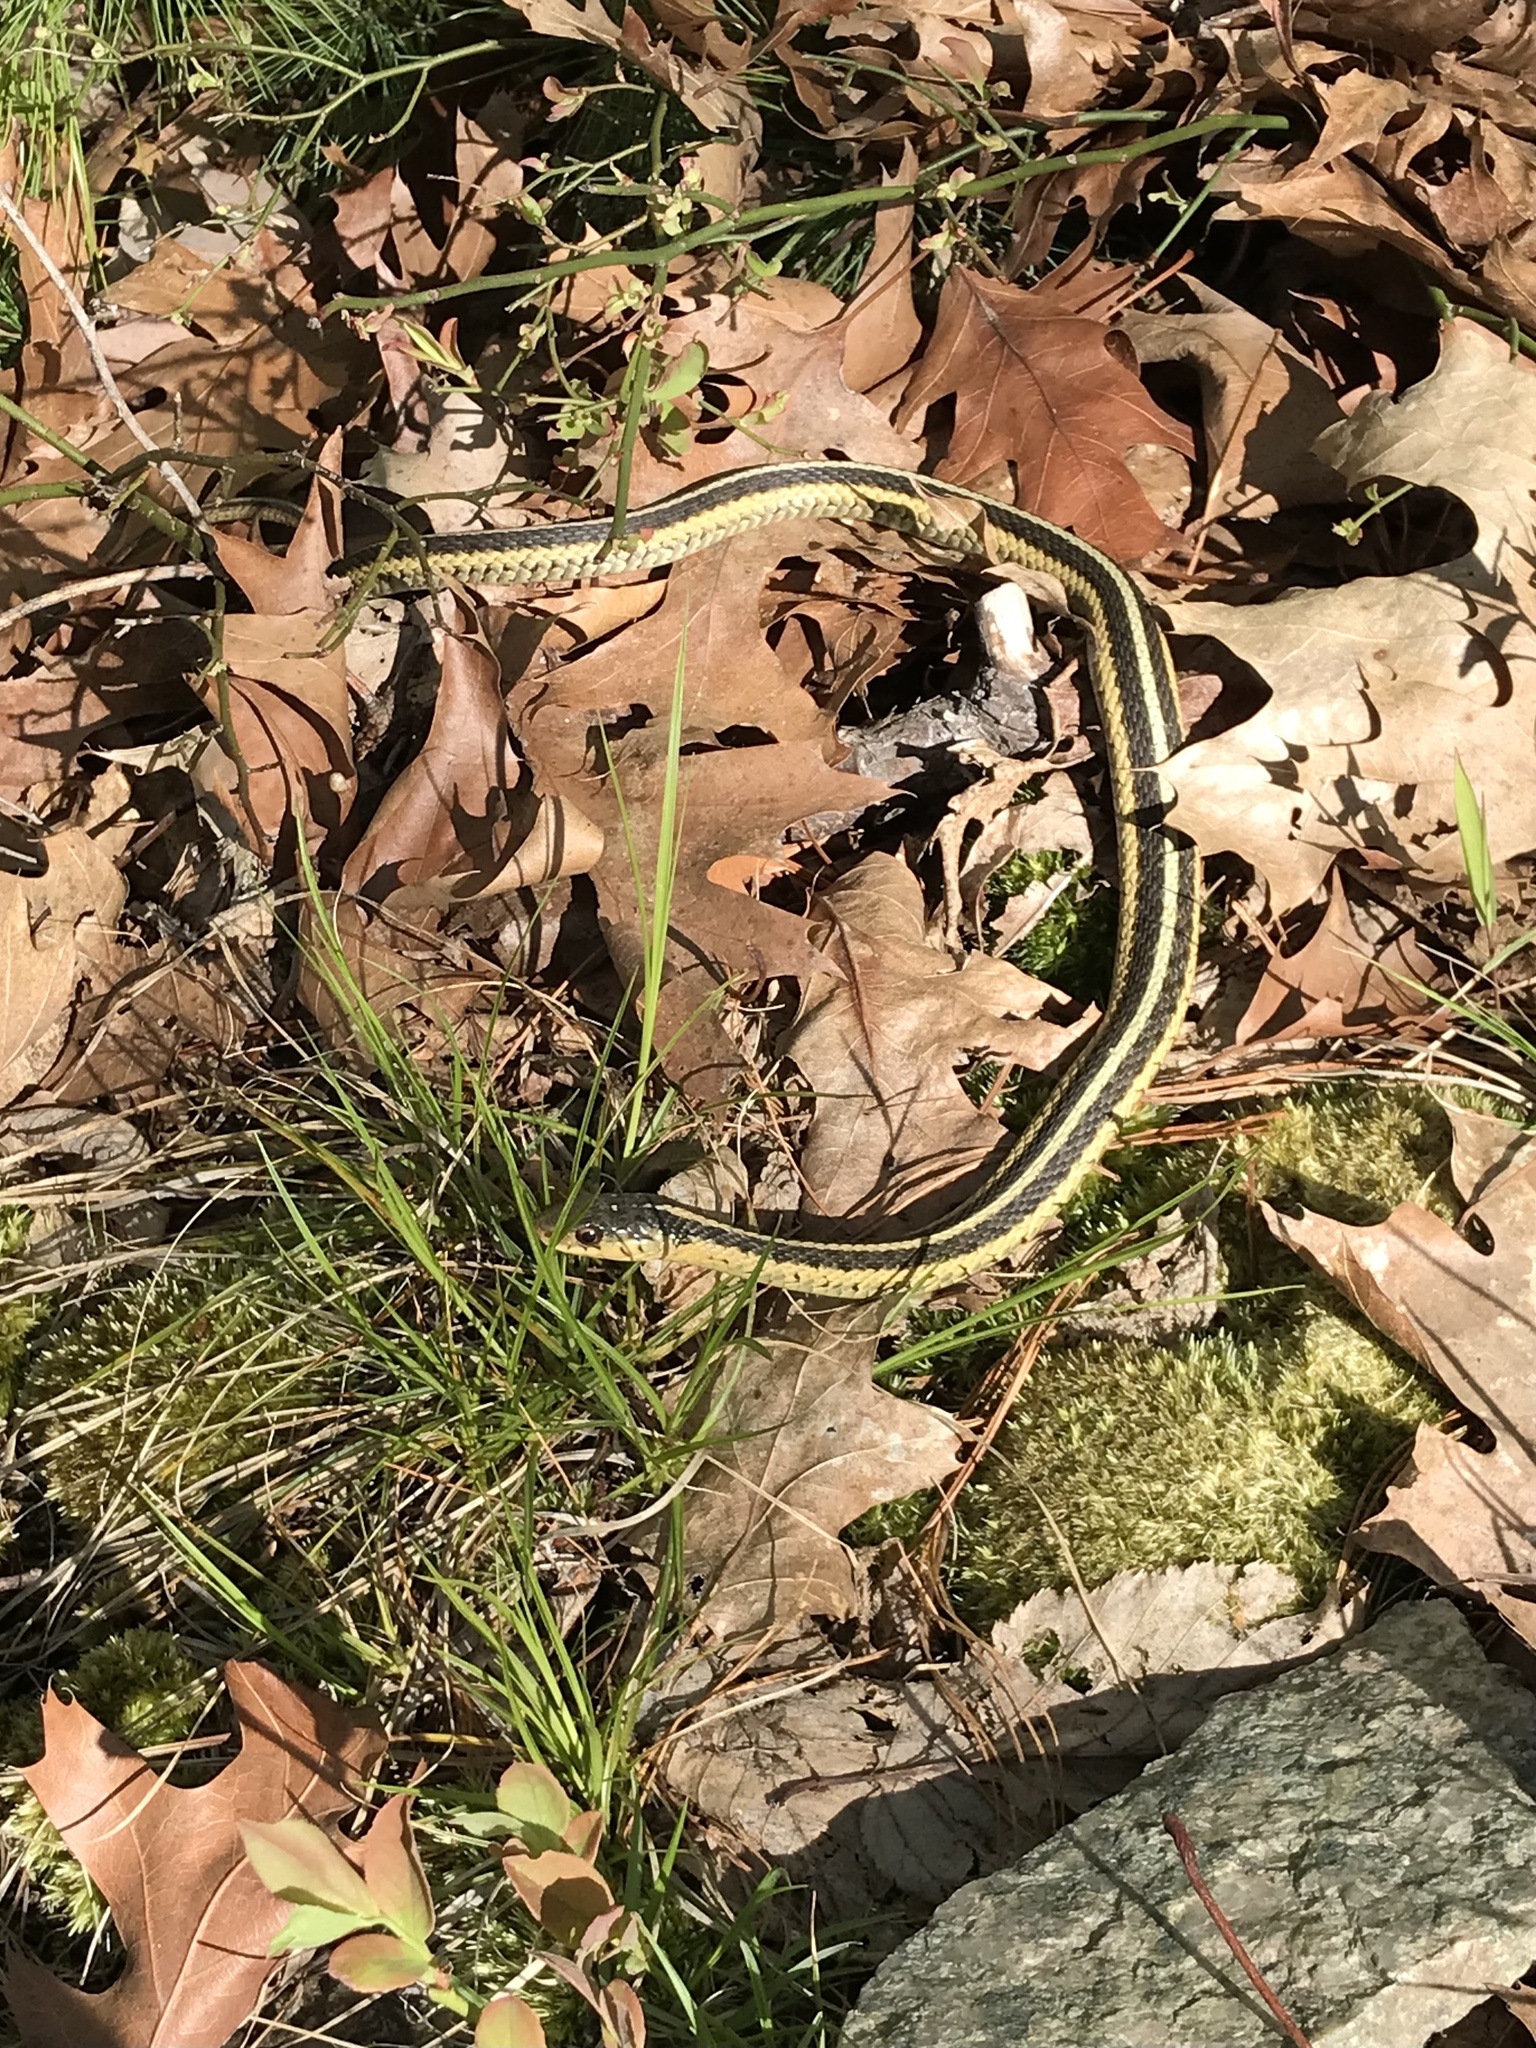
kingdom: Animalia
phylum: Chordata
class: Squamata
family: Colubridae
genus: Thamnophis
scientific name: Thamnophis sirtalis
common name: Common garter snake
